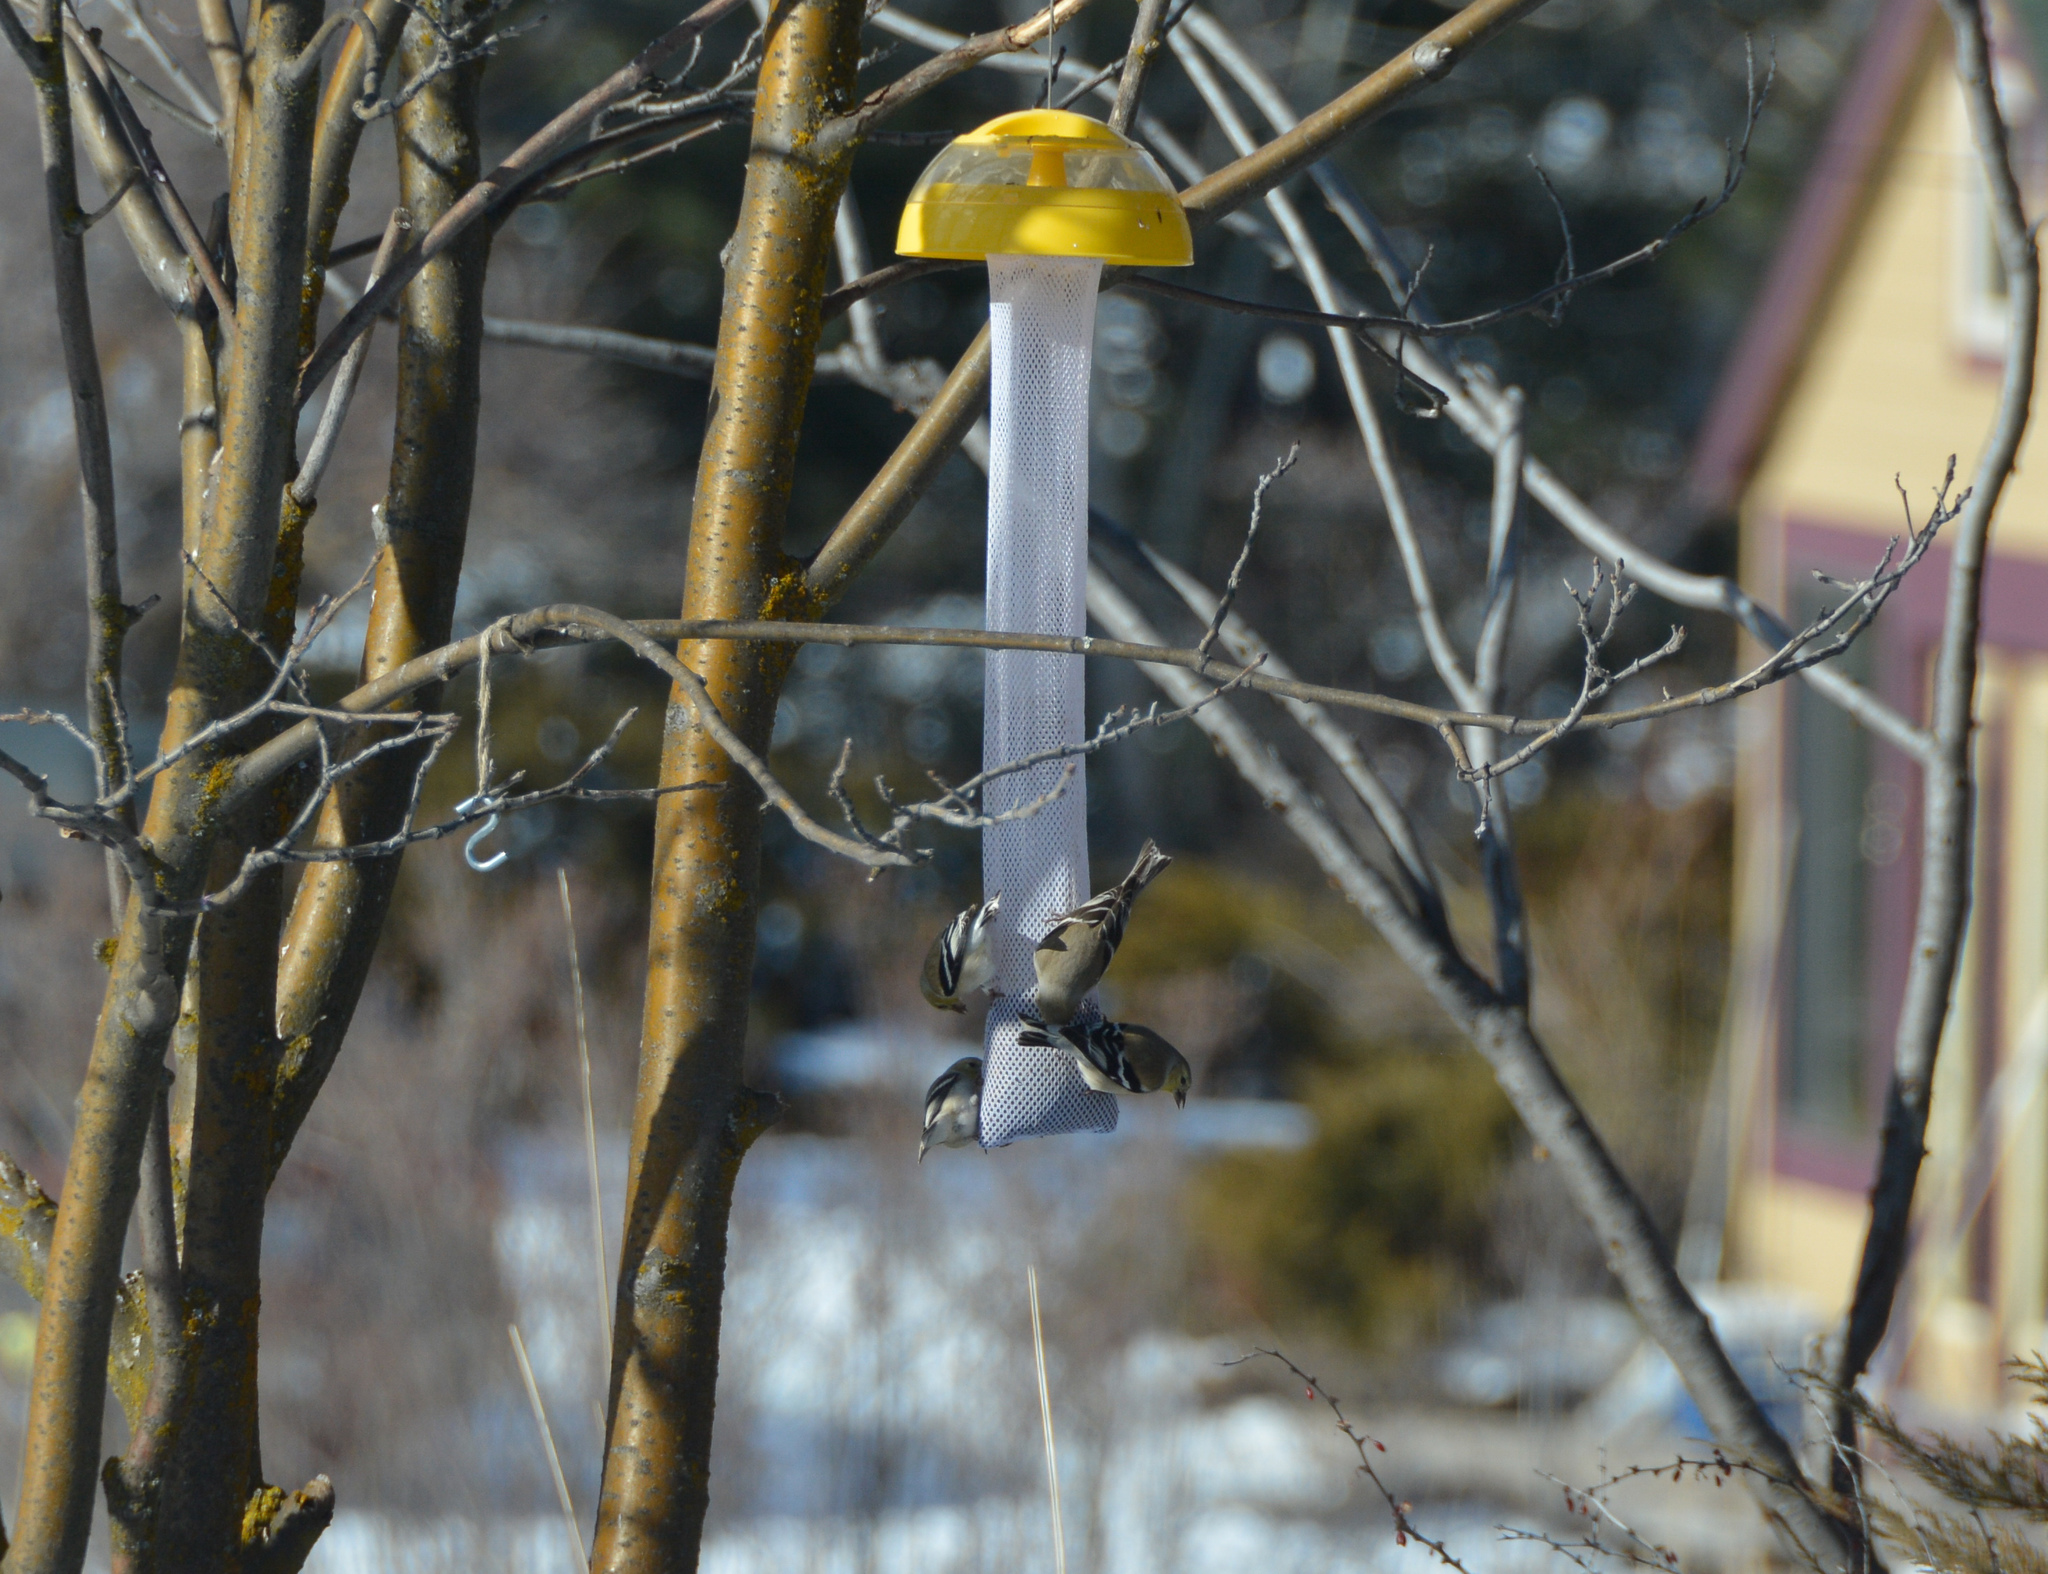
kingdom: Animalia
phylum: Chordata
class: Aves
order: Passeriformes
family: Fringillidae
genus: Spinus
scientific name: Spinus tristis
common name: American goldfinch
